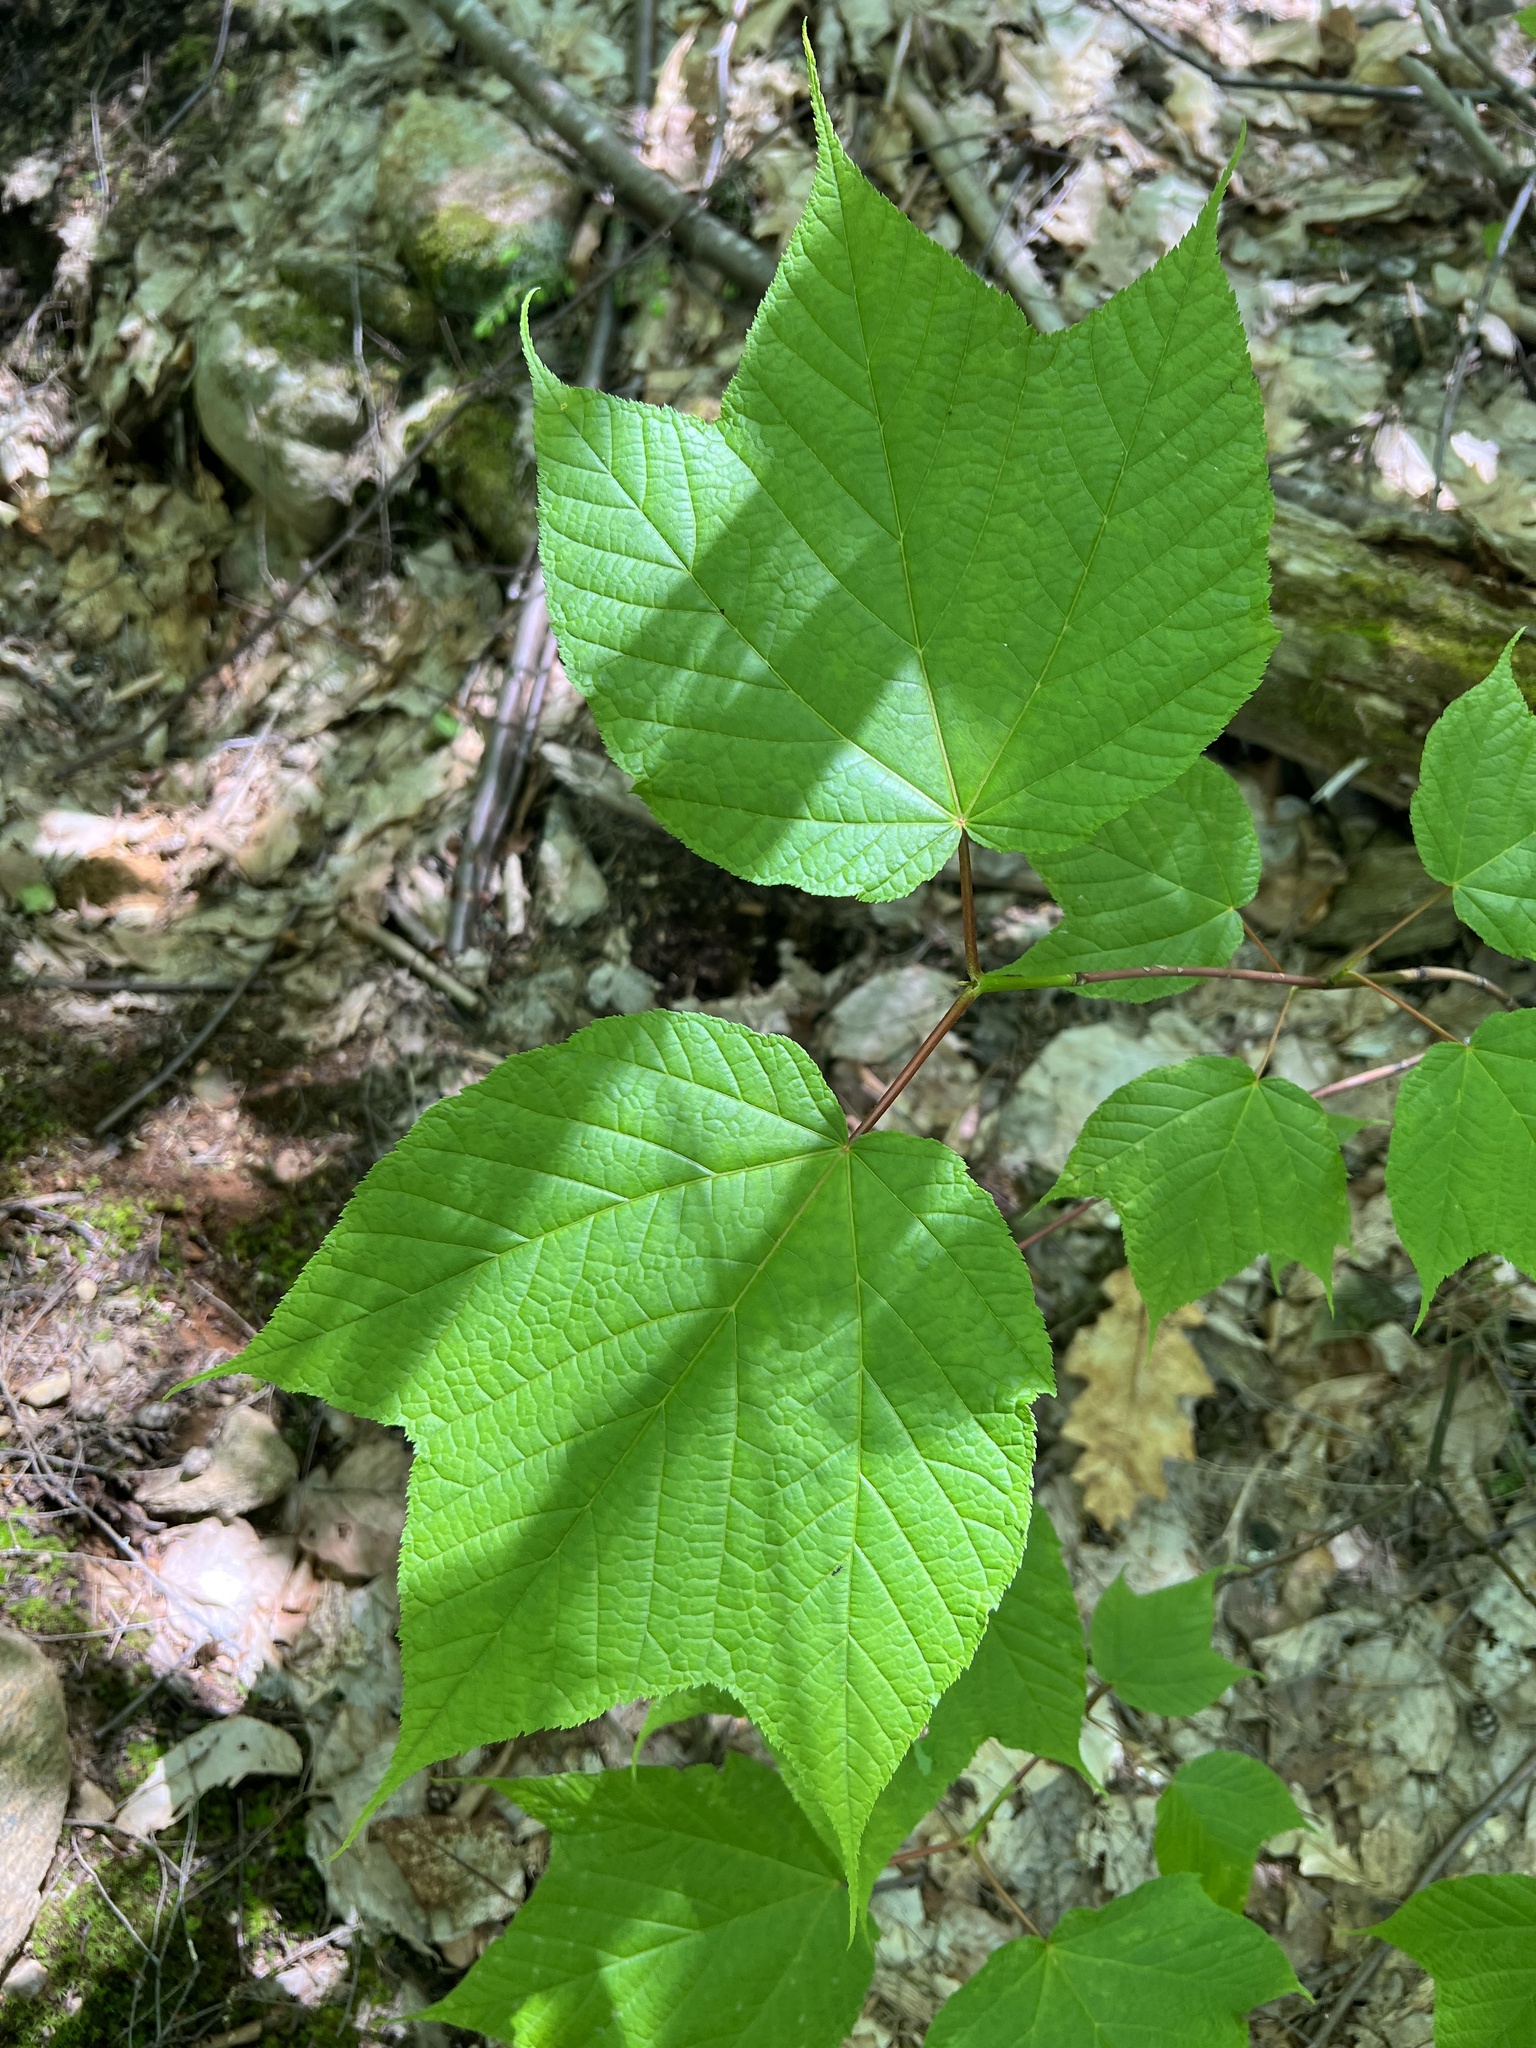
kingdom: Plantae
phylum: Tracheophyta
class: Magnoliopsida
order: Sapindales
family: Sapindaceae
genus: Acer
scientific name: Acer pensylvanicum
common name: Moosewood
